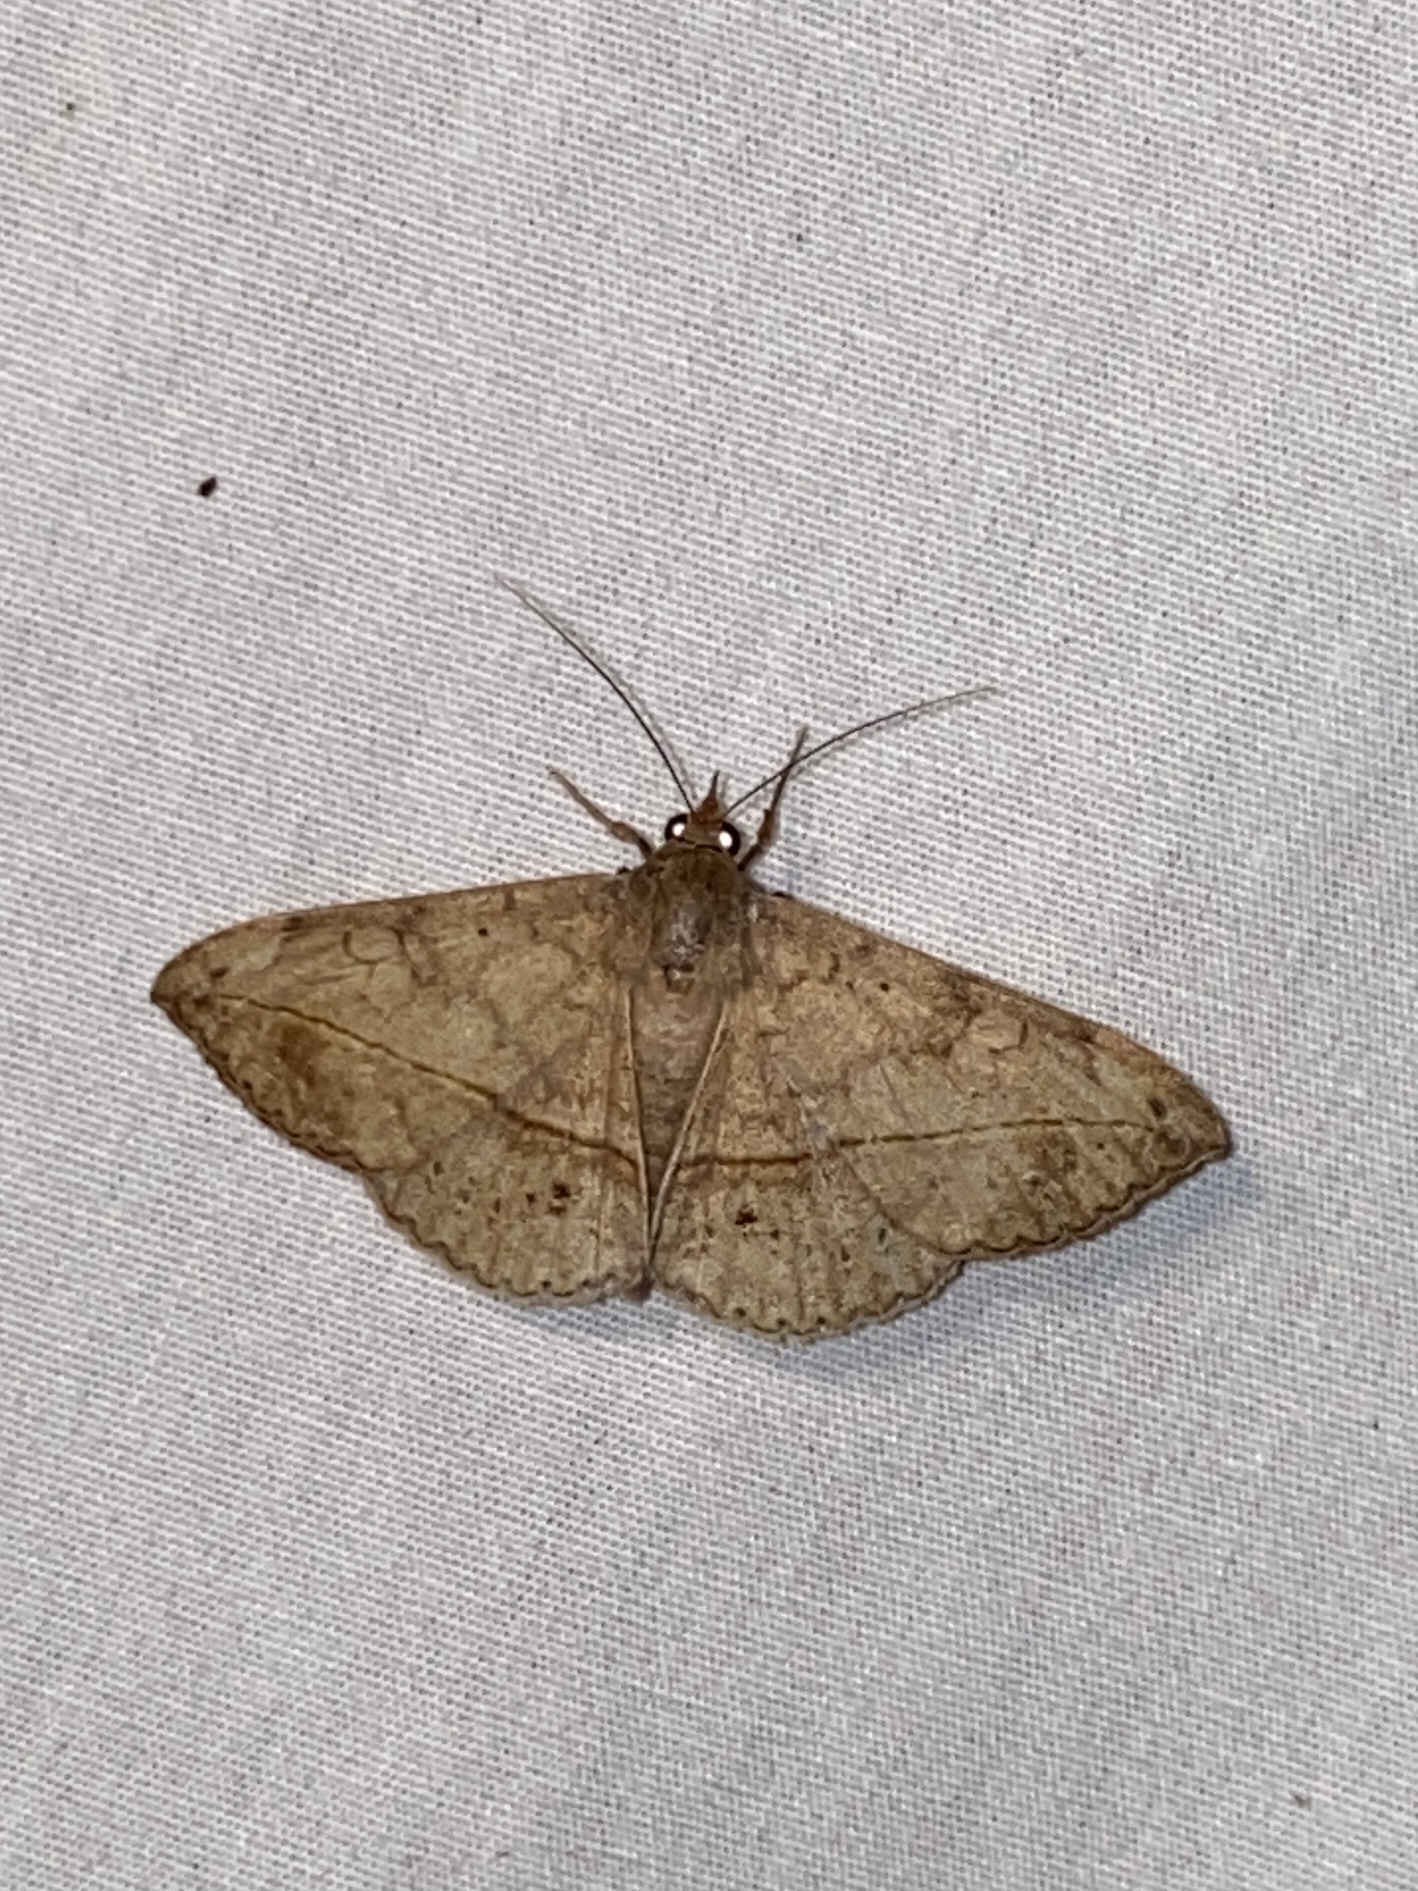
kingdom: Animalia
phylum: Arthropoda
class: Insecta
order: Lepidoptera
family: Erebidae
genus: Anticarsia
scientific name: Anticarsia gemmatalis
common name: Cutworm moth
